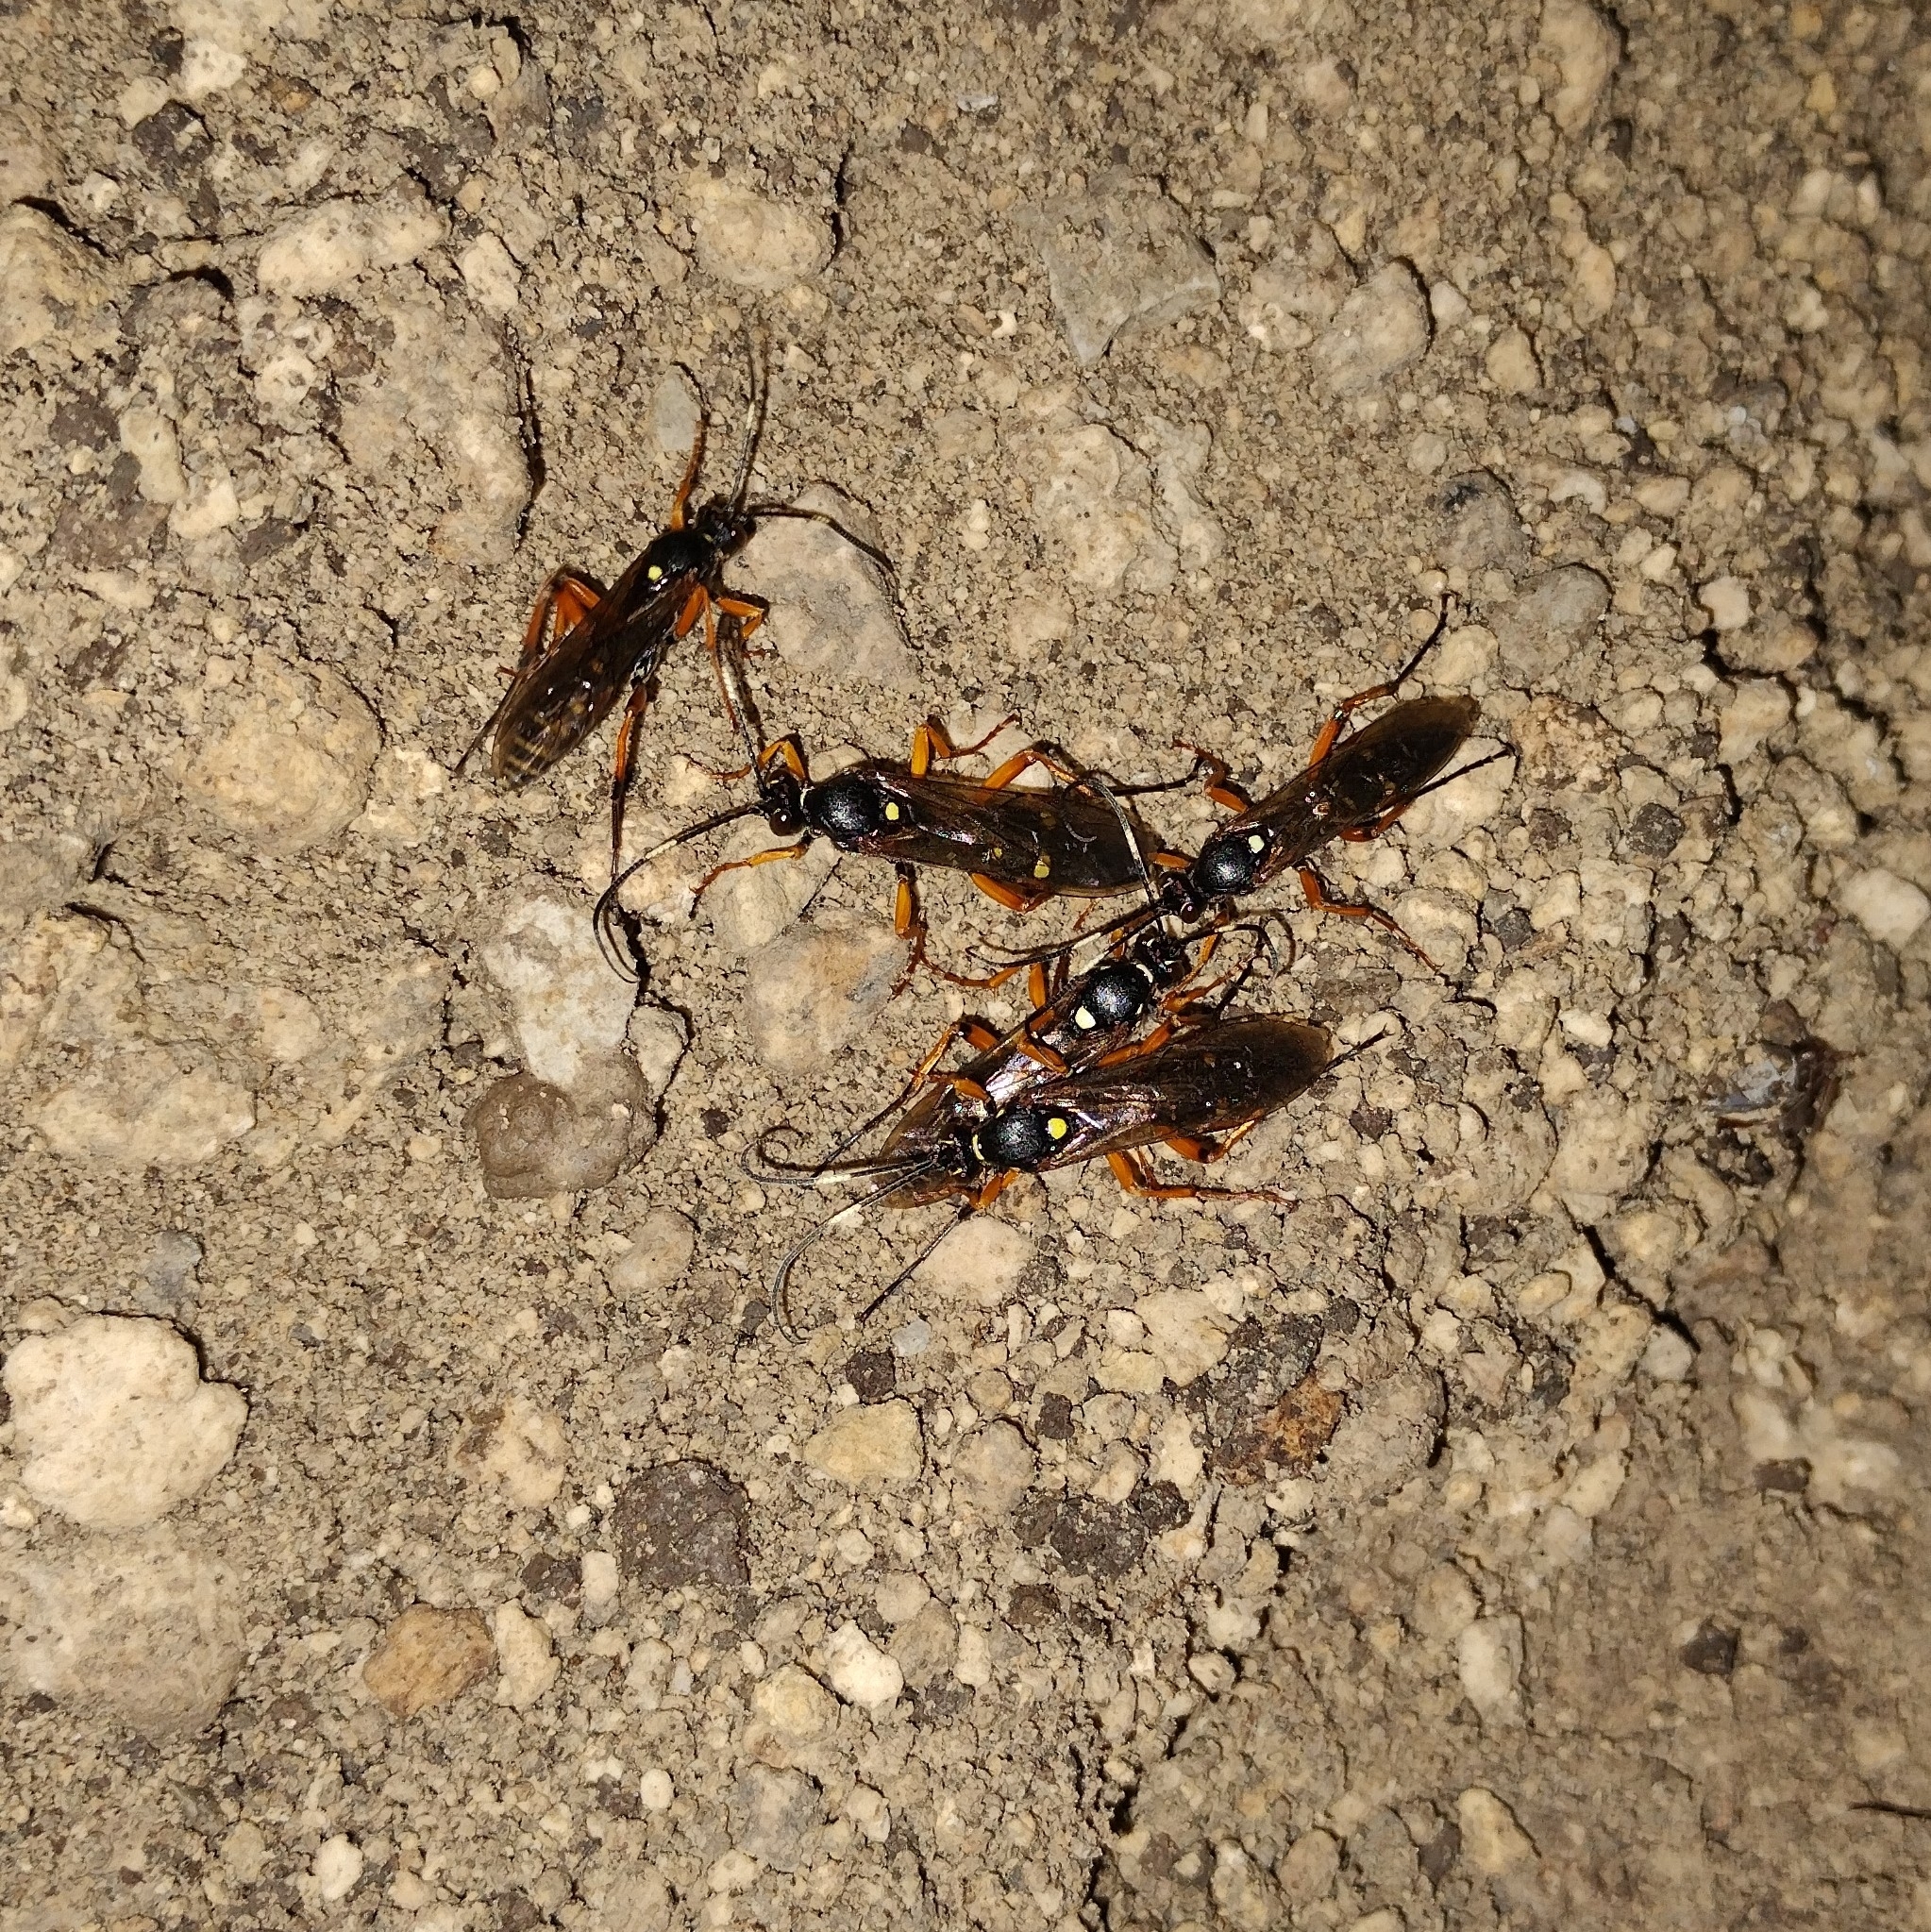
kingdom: Animalia
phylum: Arthropoda
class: Insecta
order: Hymenoptera
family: Ichneumonidae
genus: Diphyus
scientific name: Diphyus quadripunctorius
